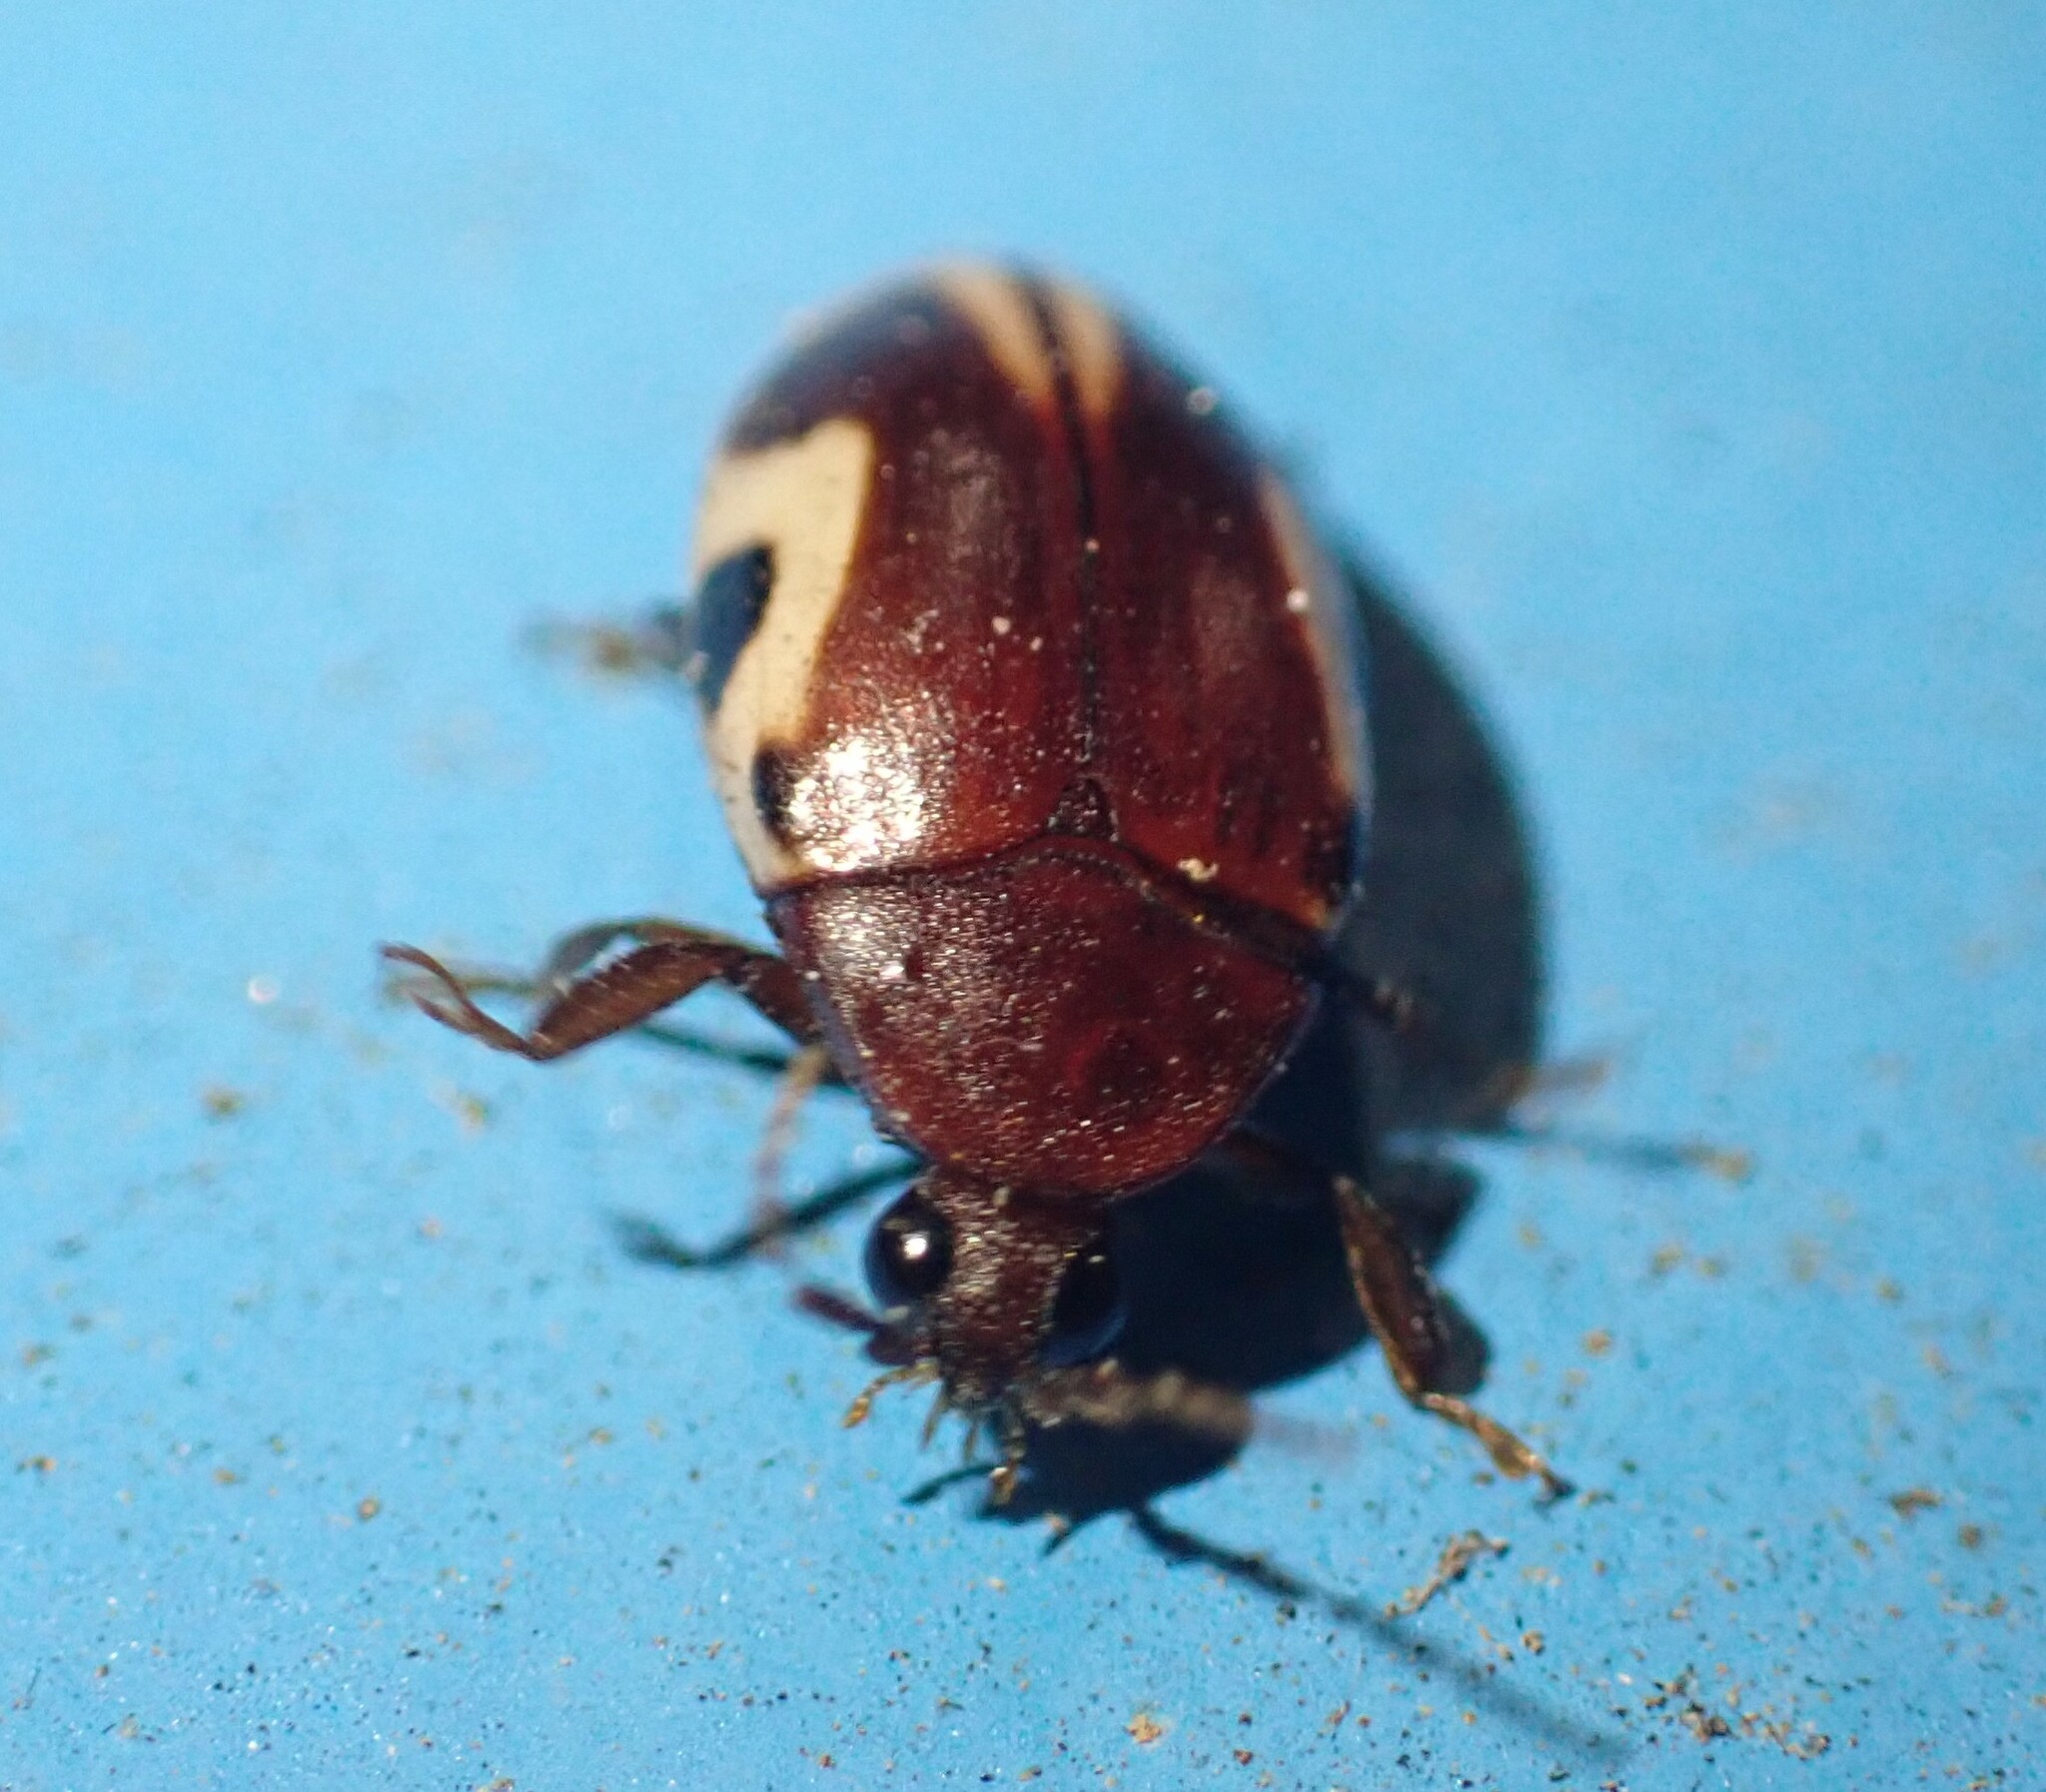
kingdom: Animalia
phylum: Arthropoda
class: Insecta
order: Coleoptera
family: Chelonariidae
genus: Chelonarium
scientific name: Chelonarium
